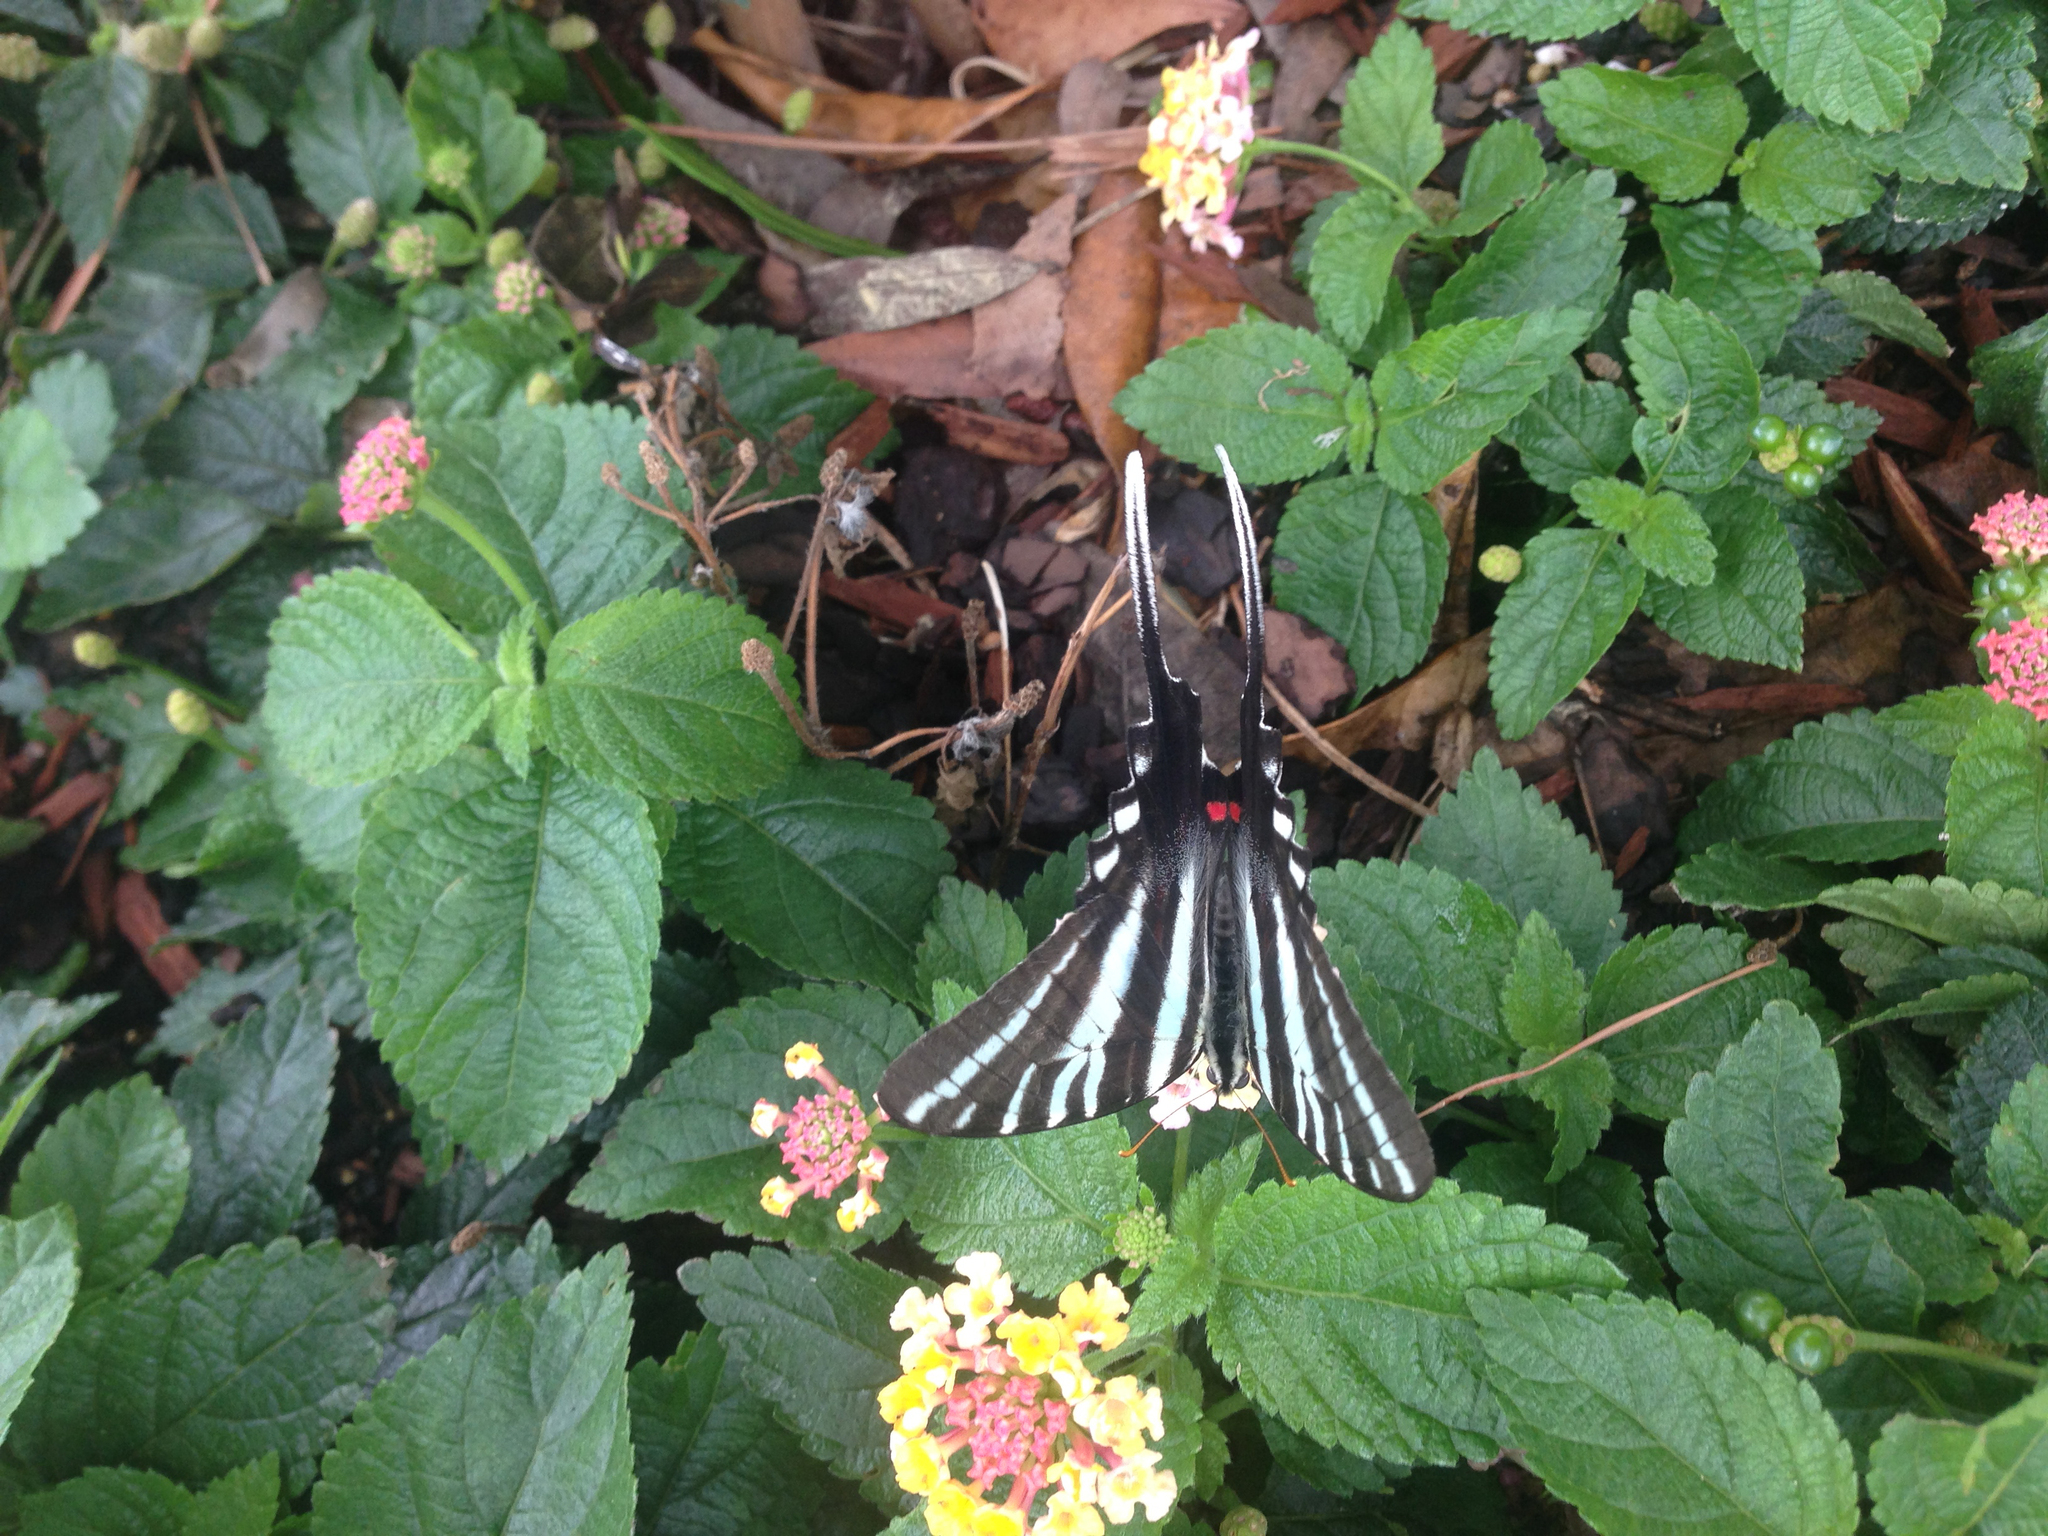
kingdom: Animalia
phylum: Arthropoda
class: Insecta
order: Lepidoptera
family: Papilionidae
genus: Protographium
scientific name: Protographium marcellus
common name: Zebra swallowtail
